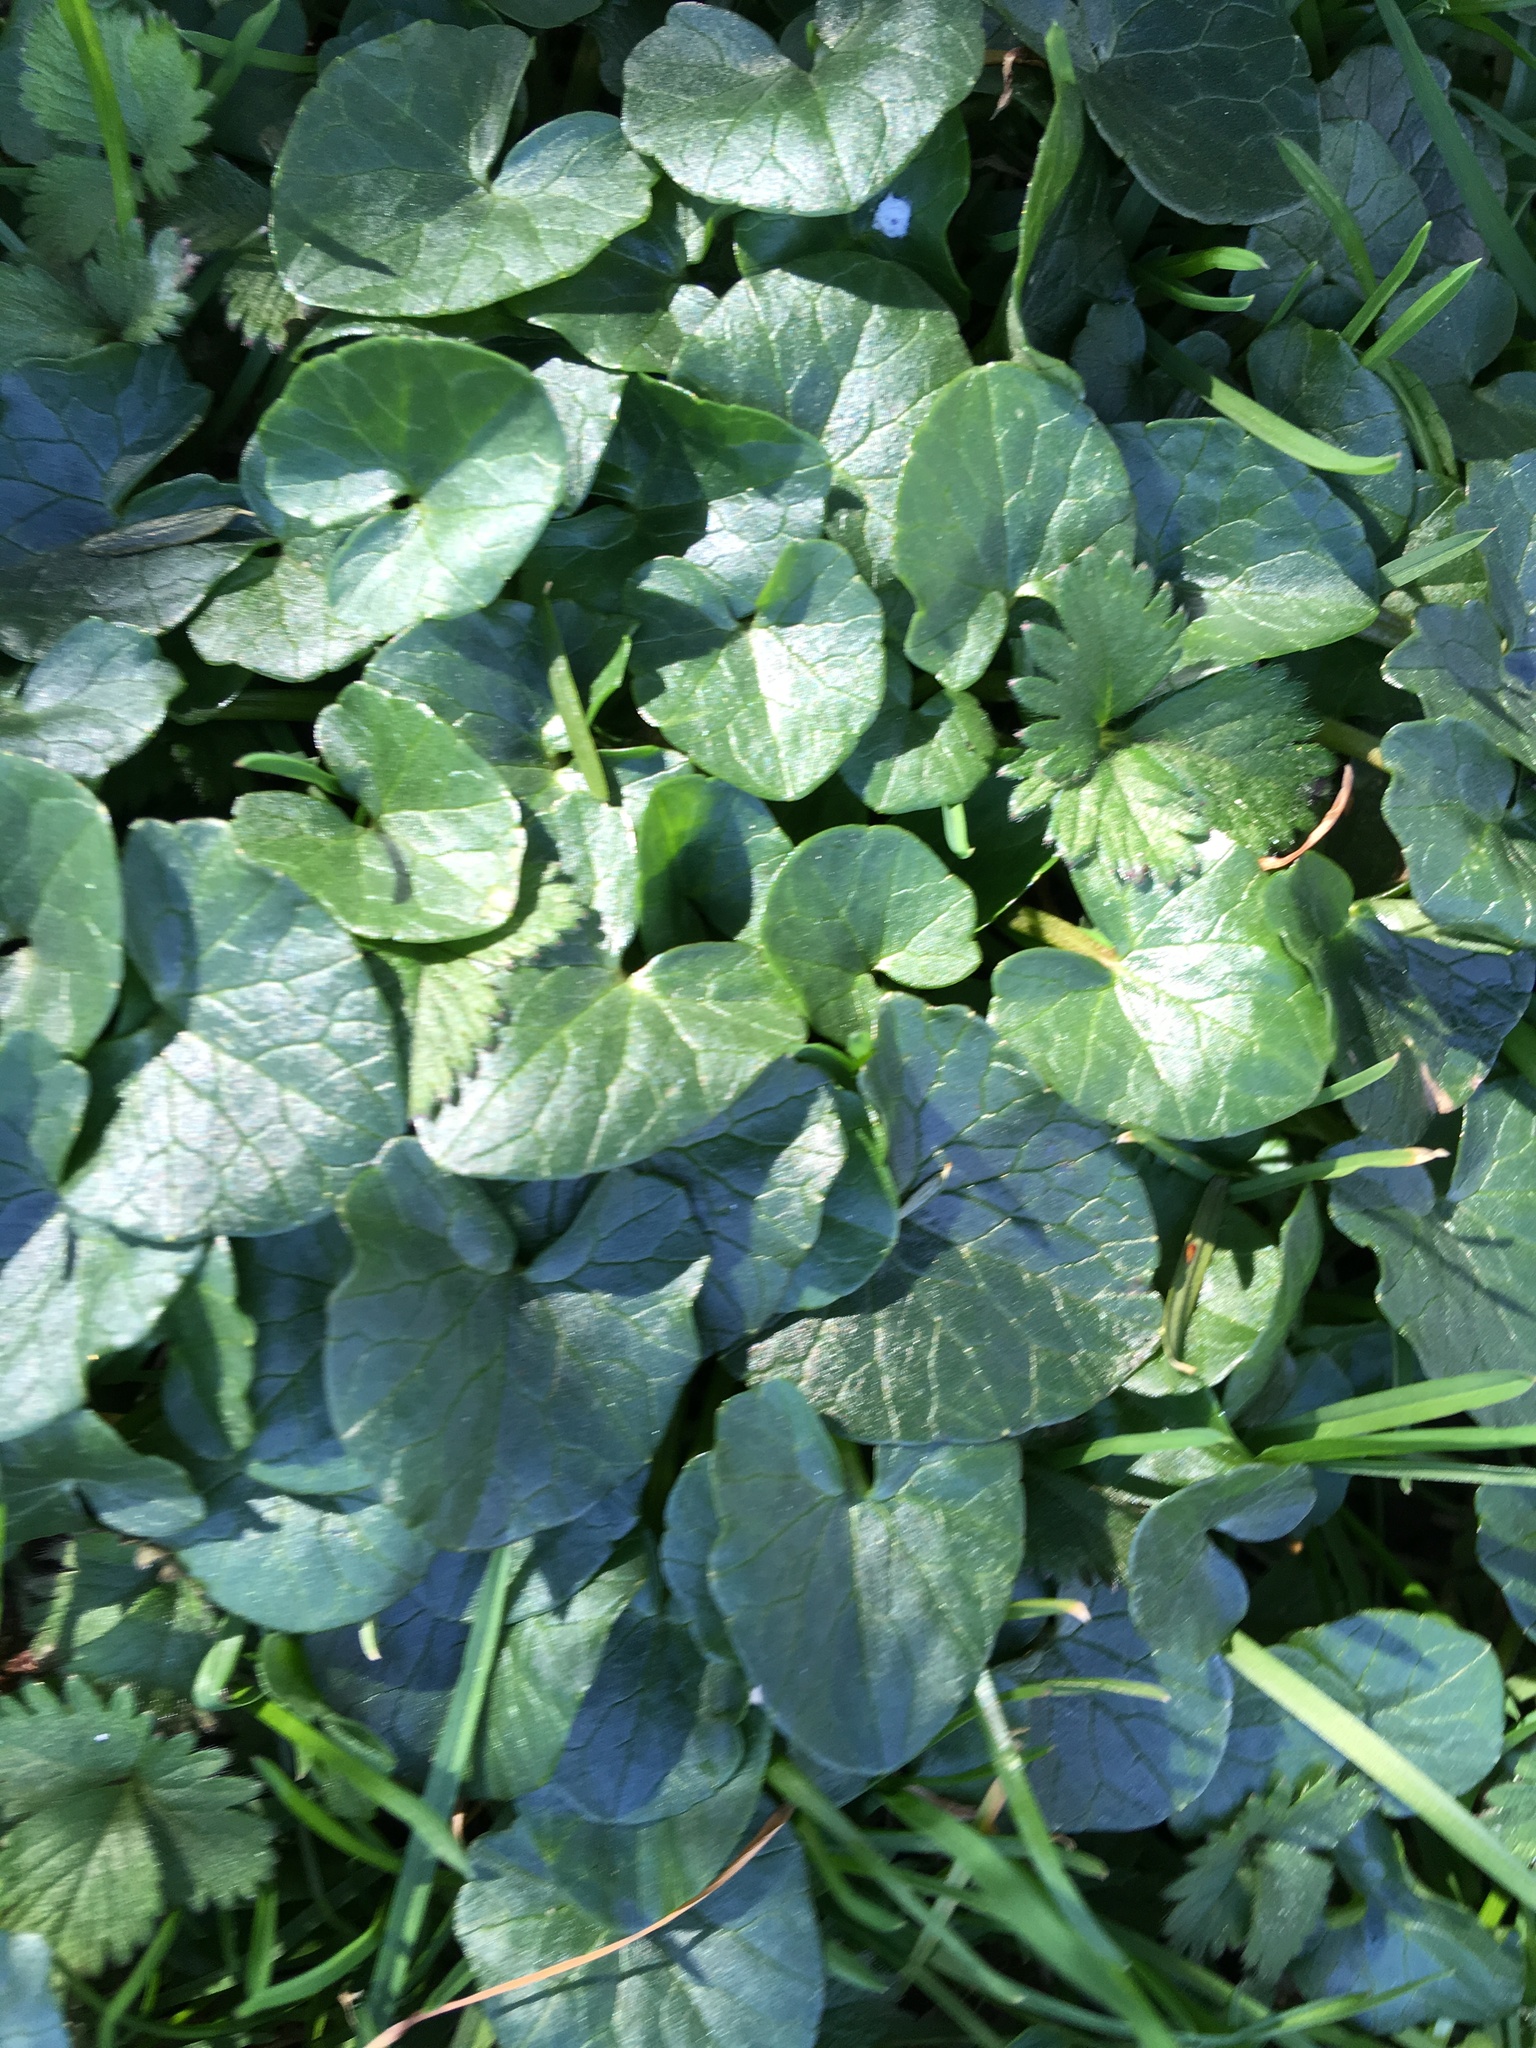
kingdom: Plantae
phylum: Tracheophyta
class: Magnoliopsida
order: Ranunculales
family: Ranunculaceae
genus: Ficaria
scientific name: Ficaria verna
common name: Lesser celandine
